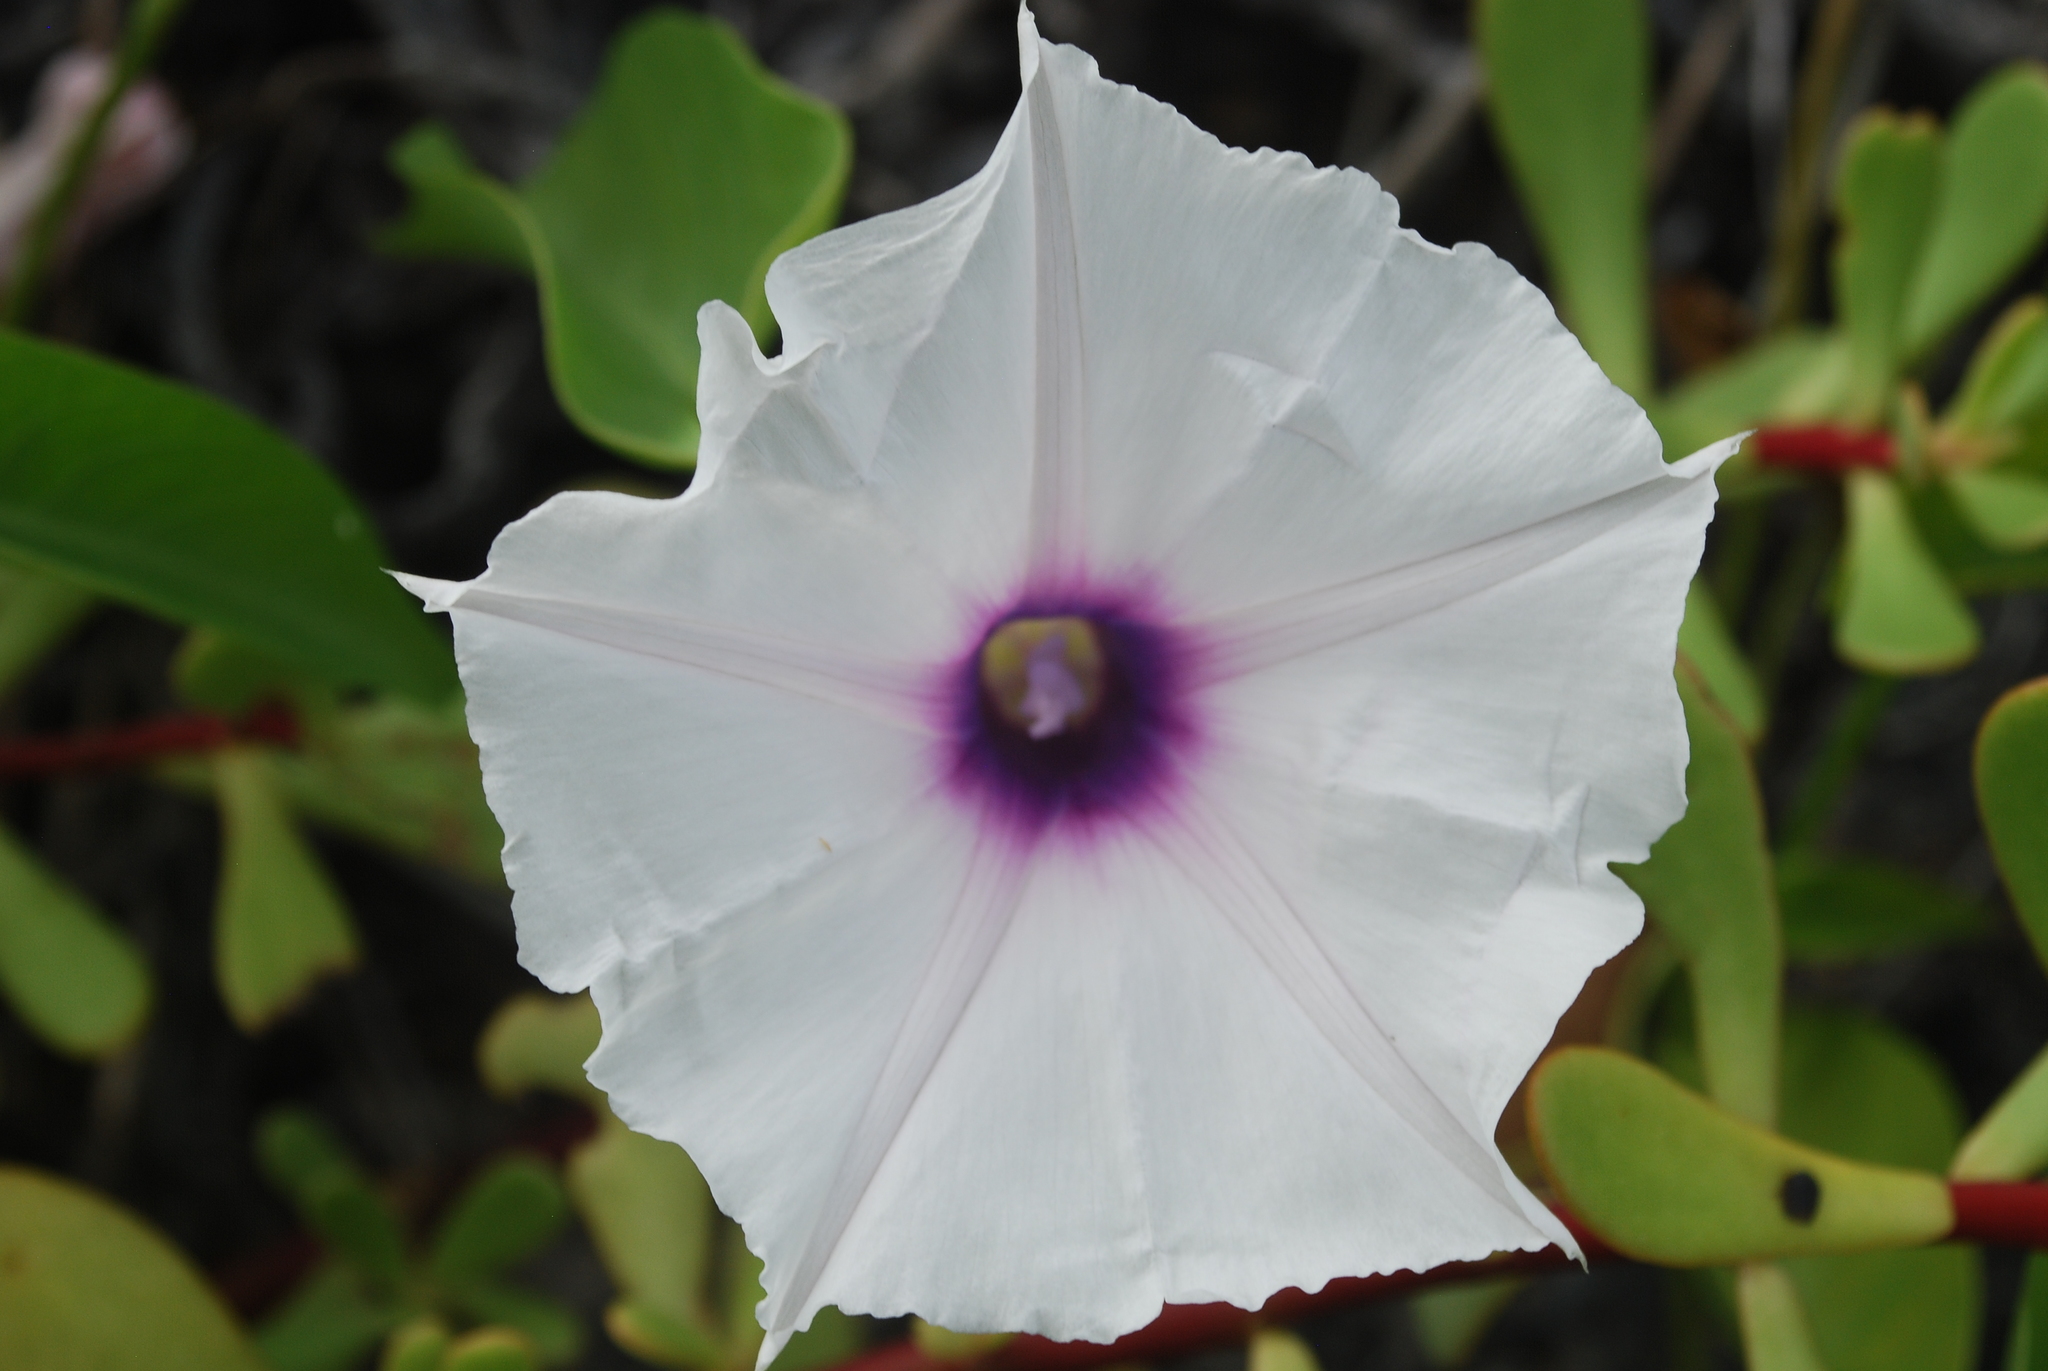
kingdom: Plantae
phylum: Tracheophyta
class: Magnoliopsida
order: Solanales
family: Convolvulaceae
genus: Ipomoea
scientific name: Ipomoea incarnata
